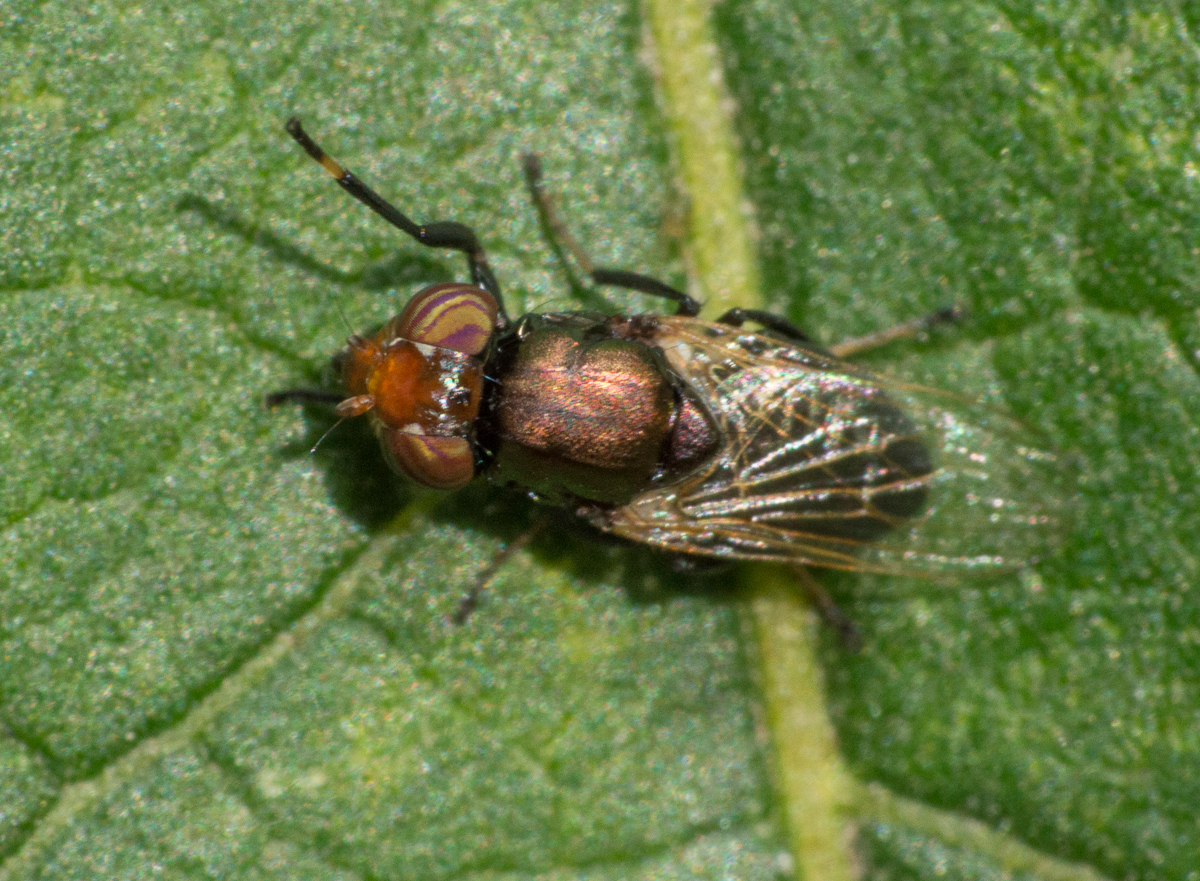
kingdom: Animalia
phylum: Arthropoda
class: Insecta
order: Diptera
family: Ulidiidae
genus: Physiphora
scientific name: Physiphora alceae
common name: Picture-winged fly
